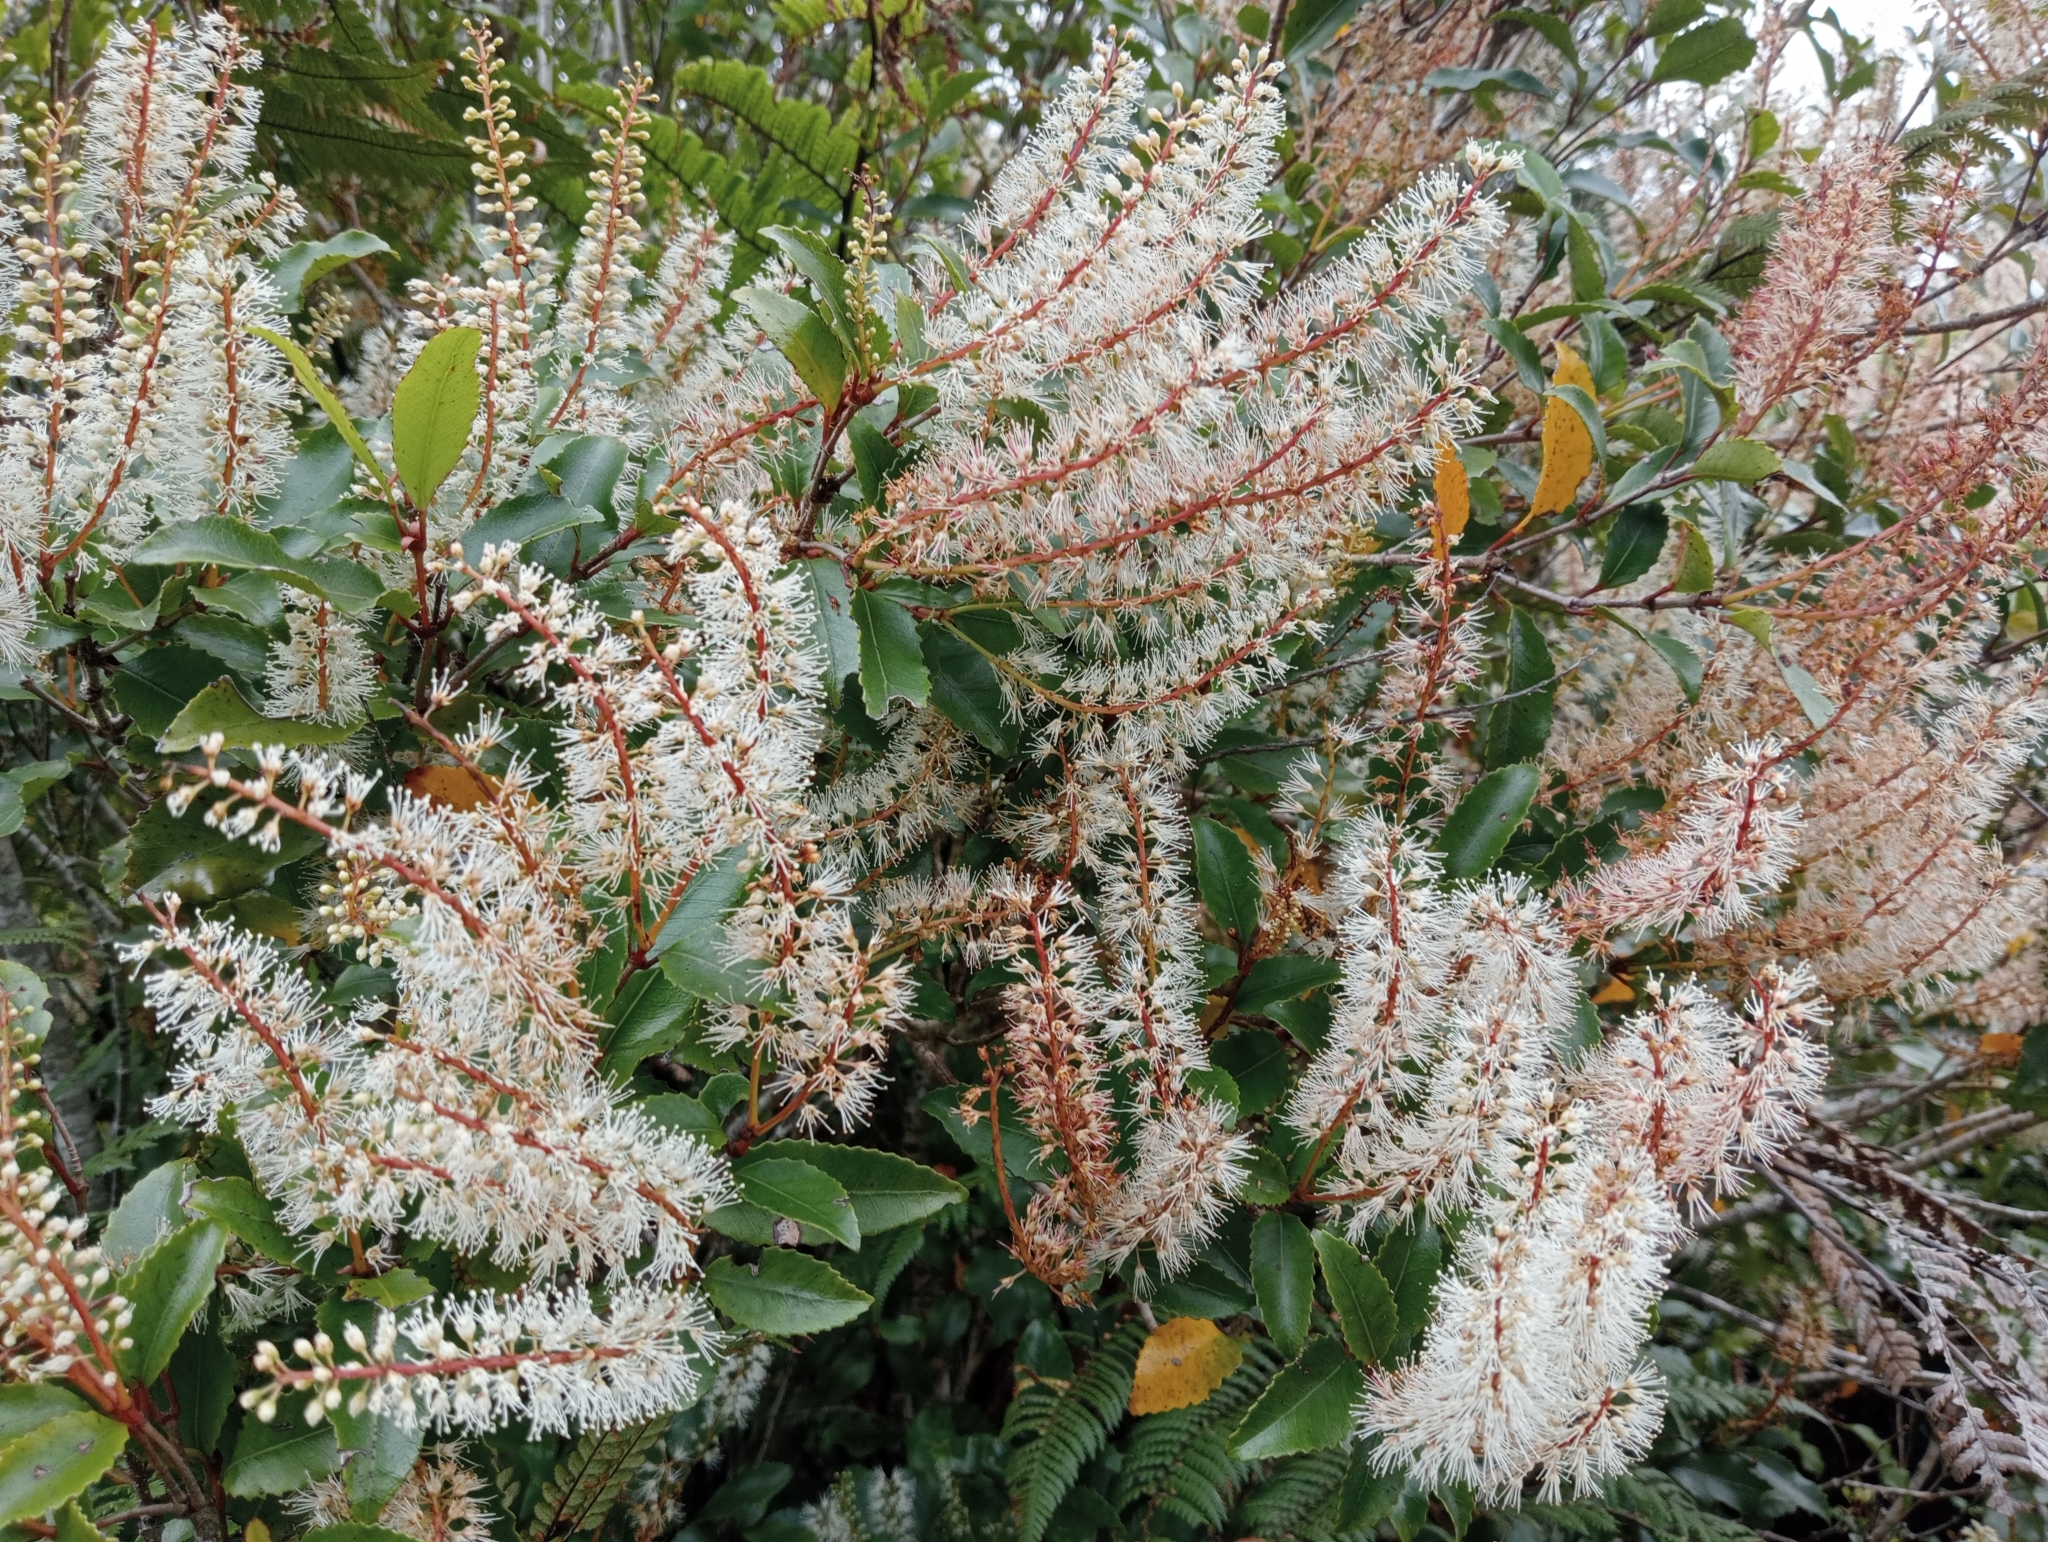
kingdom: Plantae
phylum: Tracheophyta
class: Magnoliopsida
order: Oxalidales
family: Cunoniaceae
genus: Pterophylla
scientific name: Pterophylla racemosa
